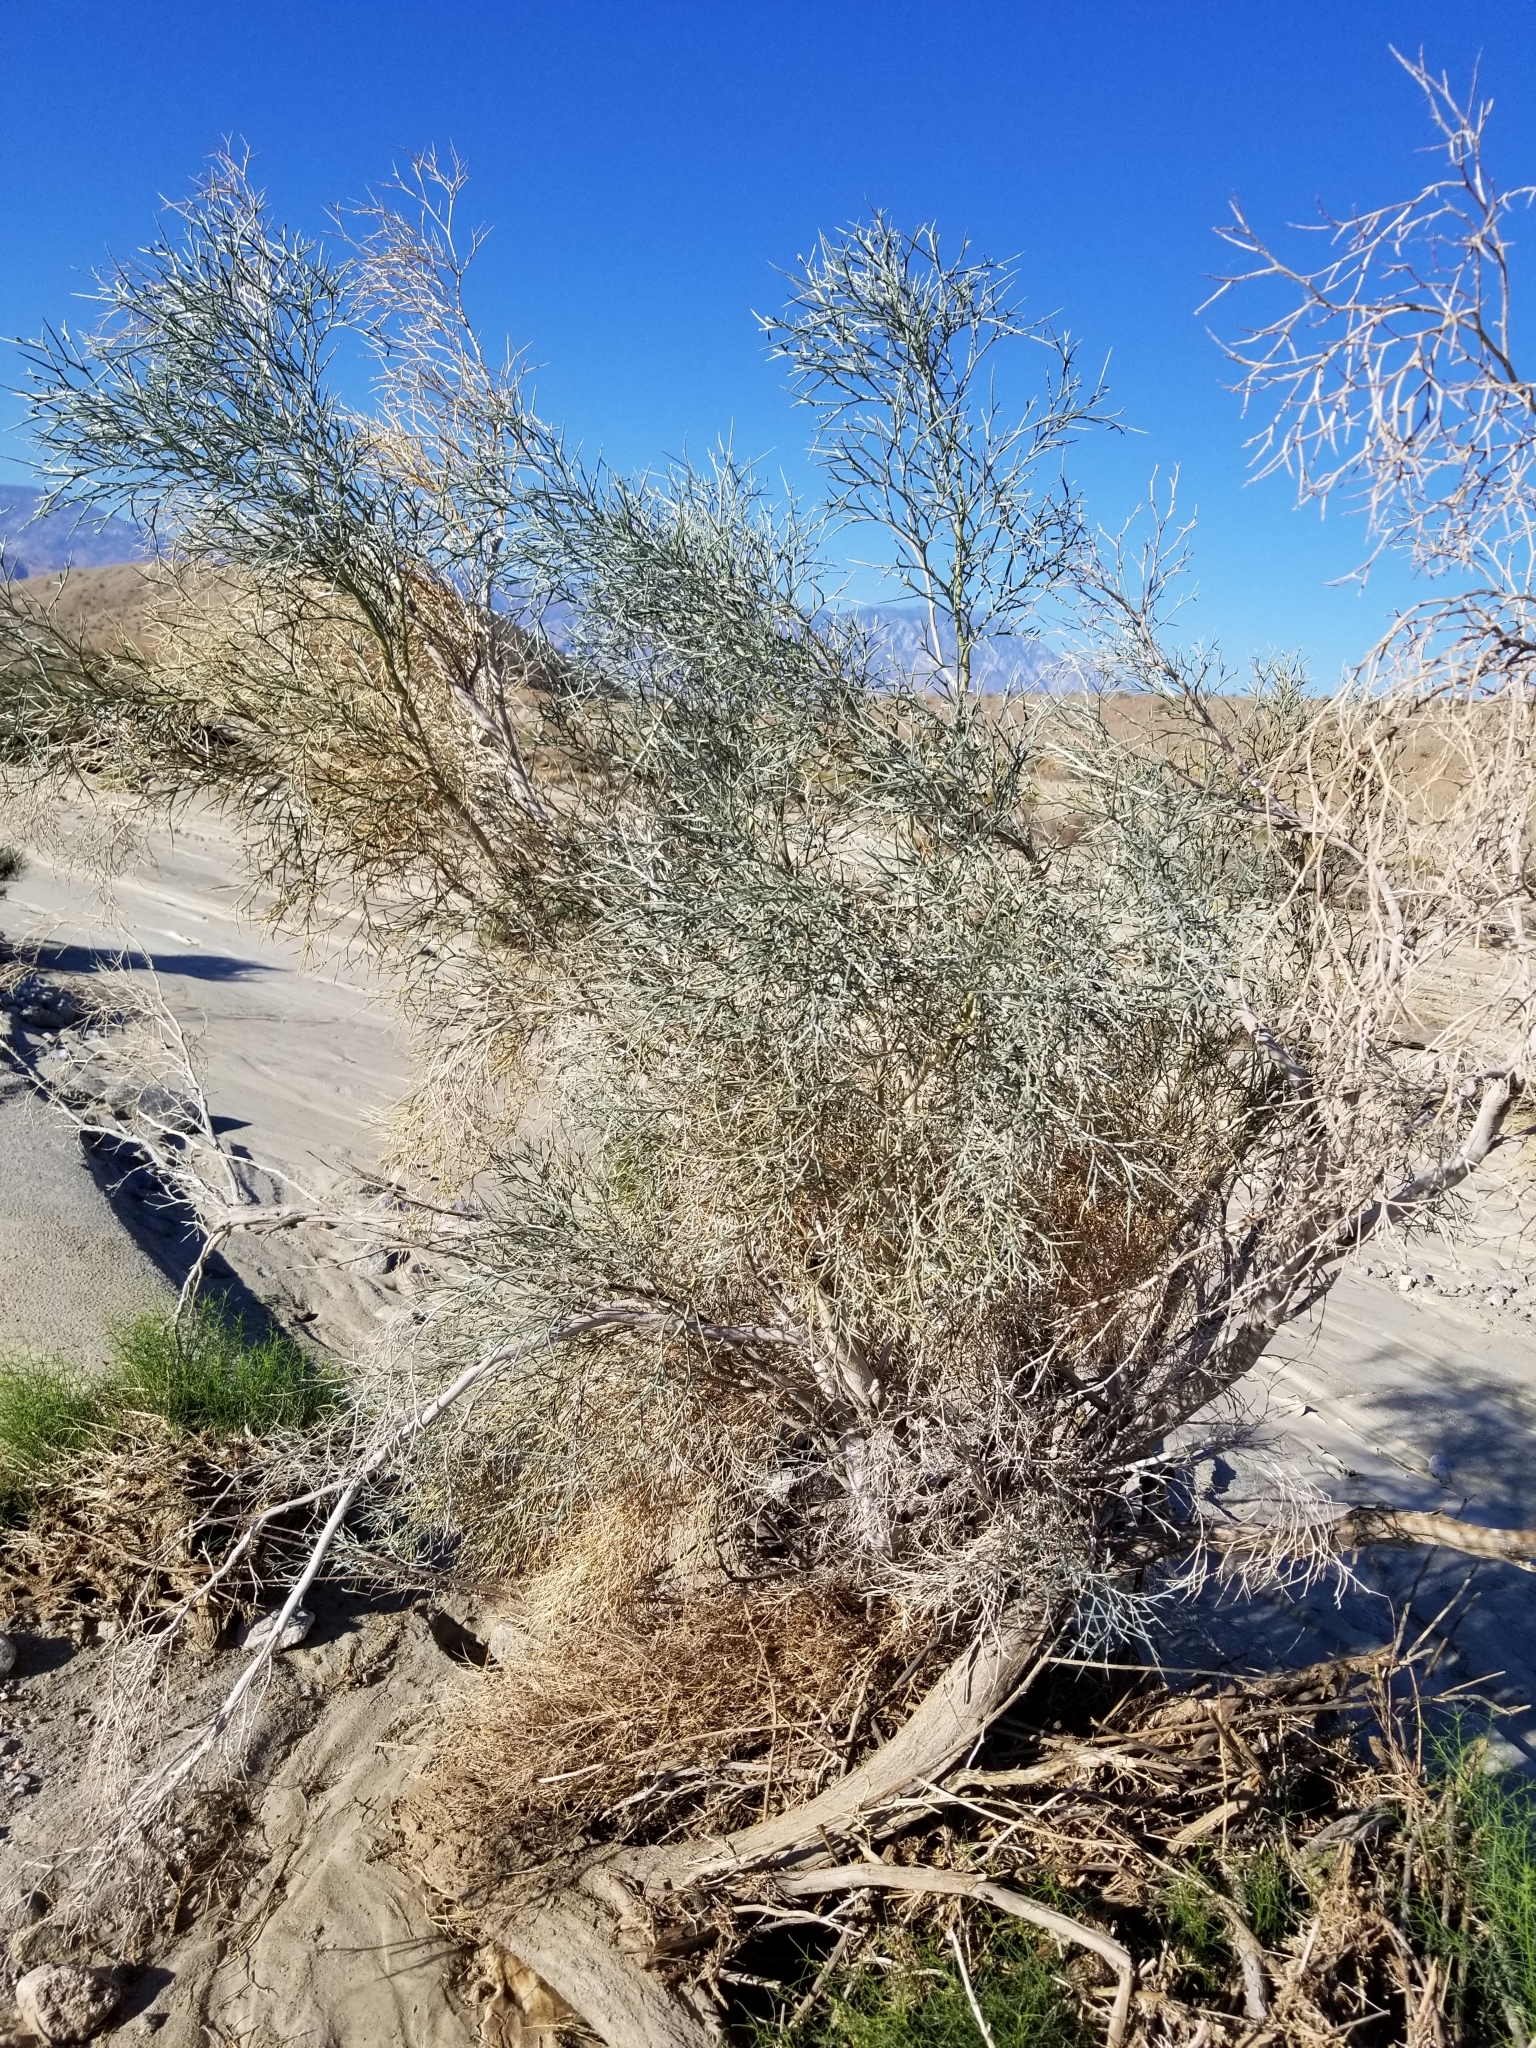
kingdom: Plantae
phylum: Tracheophyta
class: Magnoliopsida
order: Fabales
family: Fabaceae
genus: Psorothamnus
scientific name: Psorothamnus spinosus
